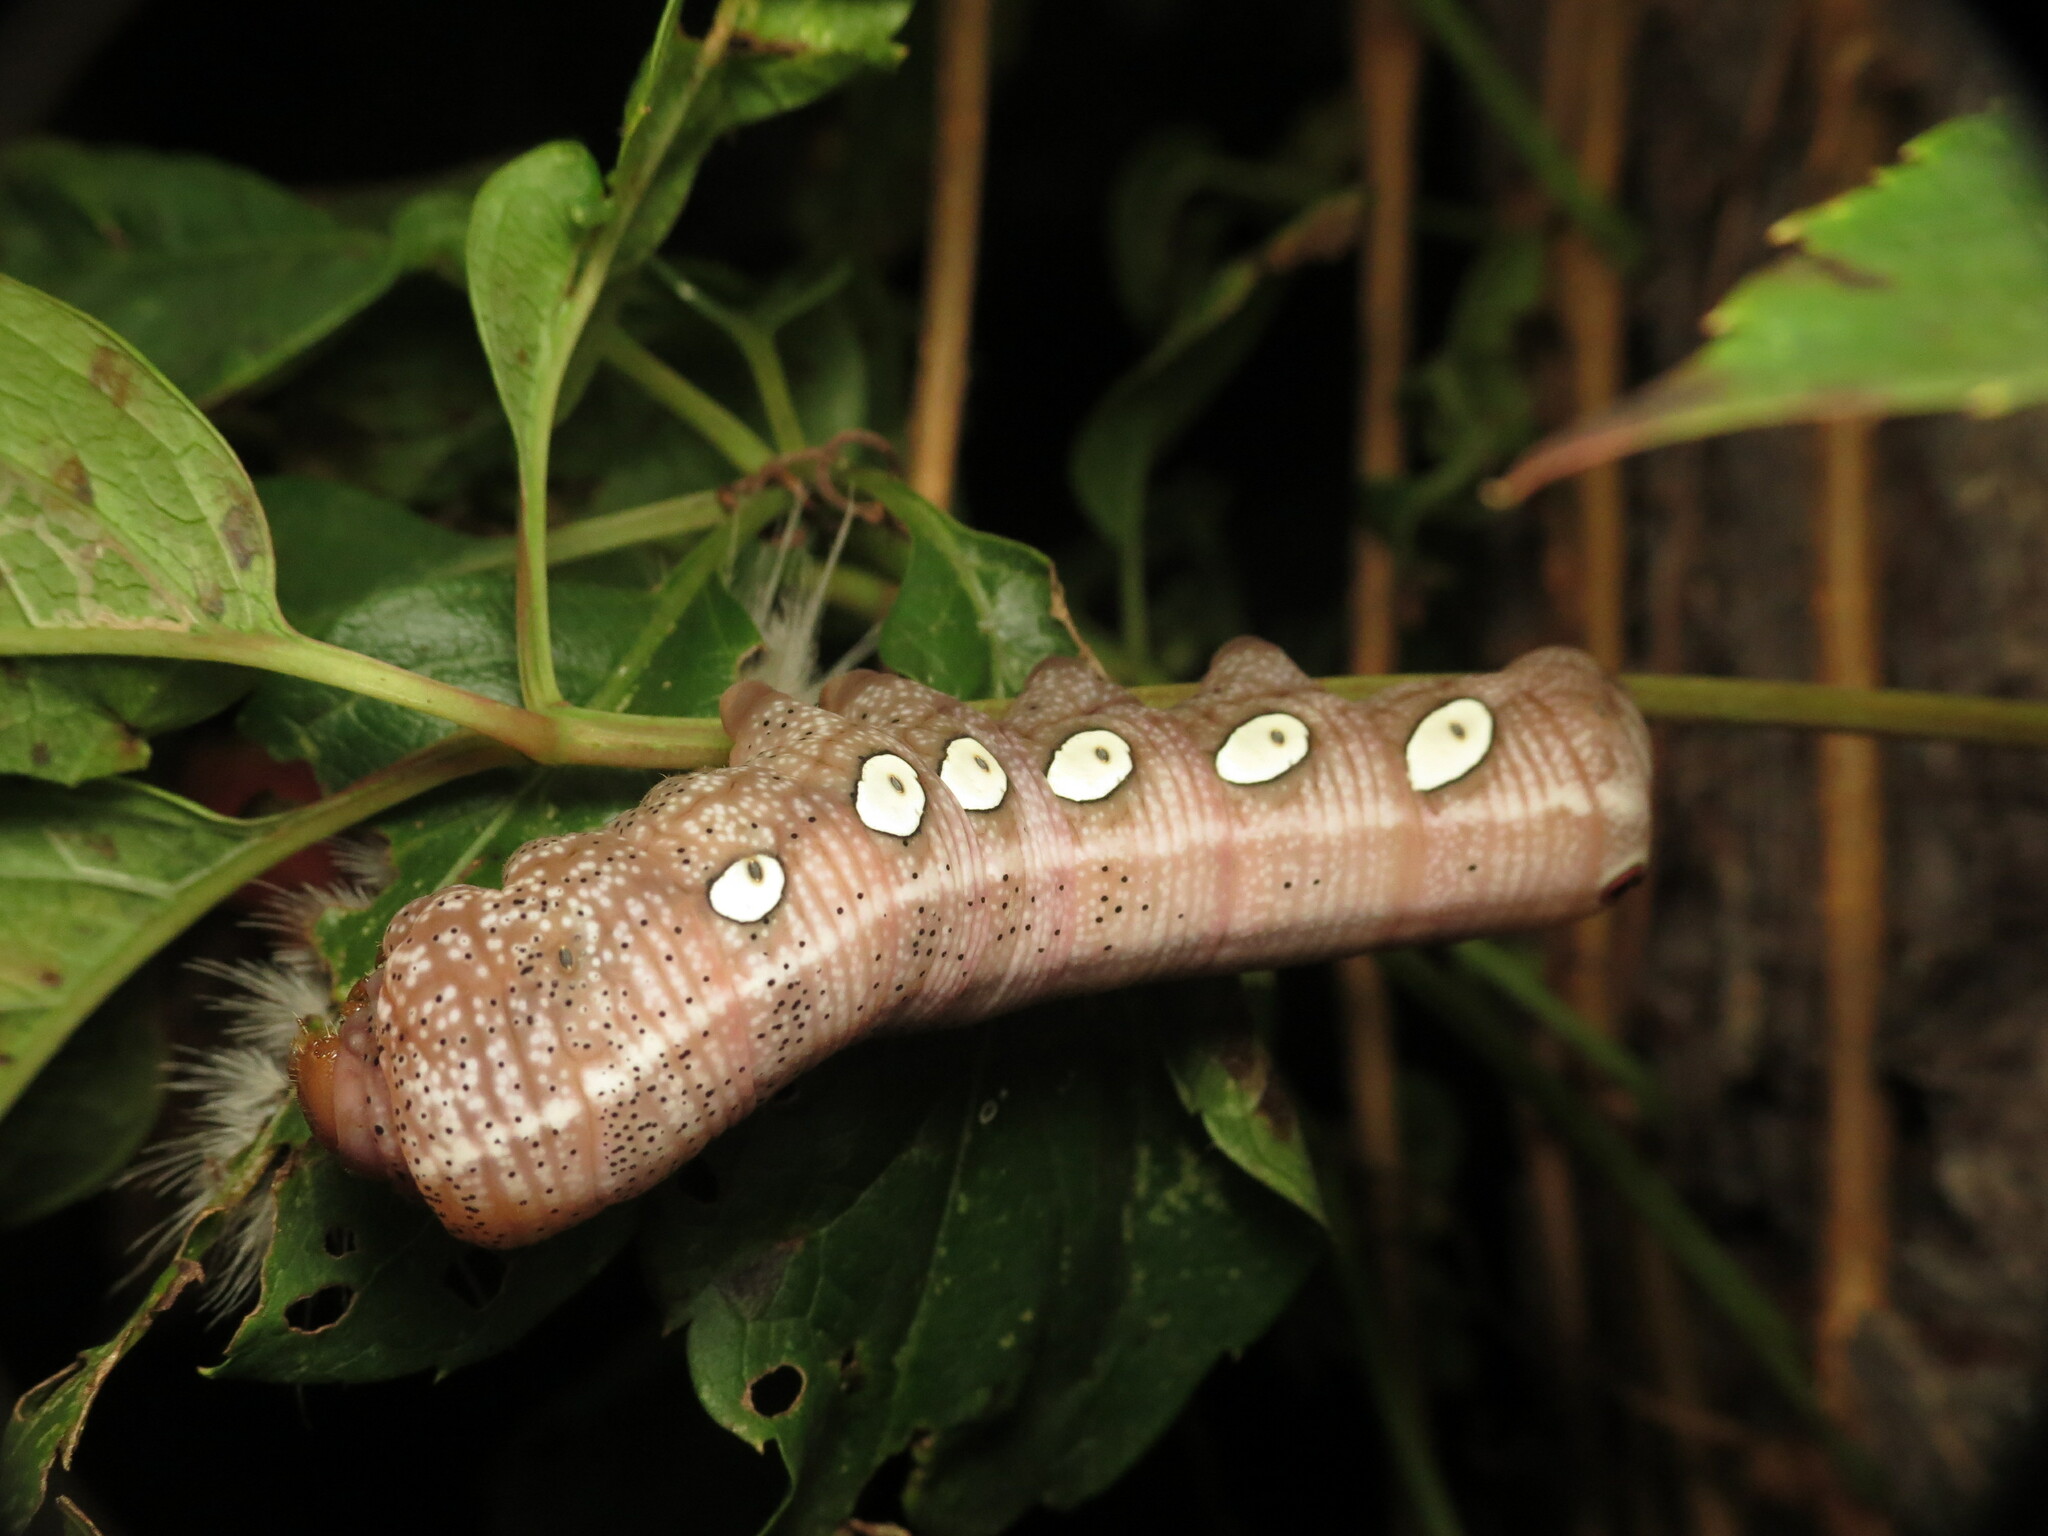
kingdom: Animalia
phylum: Arthropoda
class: Insecta
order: Lepidoptera
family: Sphingidae
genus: Eumorpha
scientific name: Eumorpha pandorus
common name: Pandora sphinx
